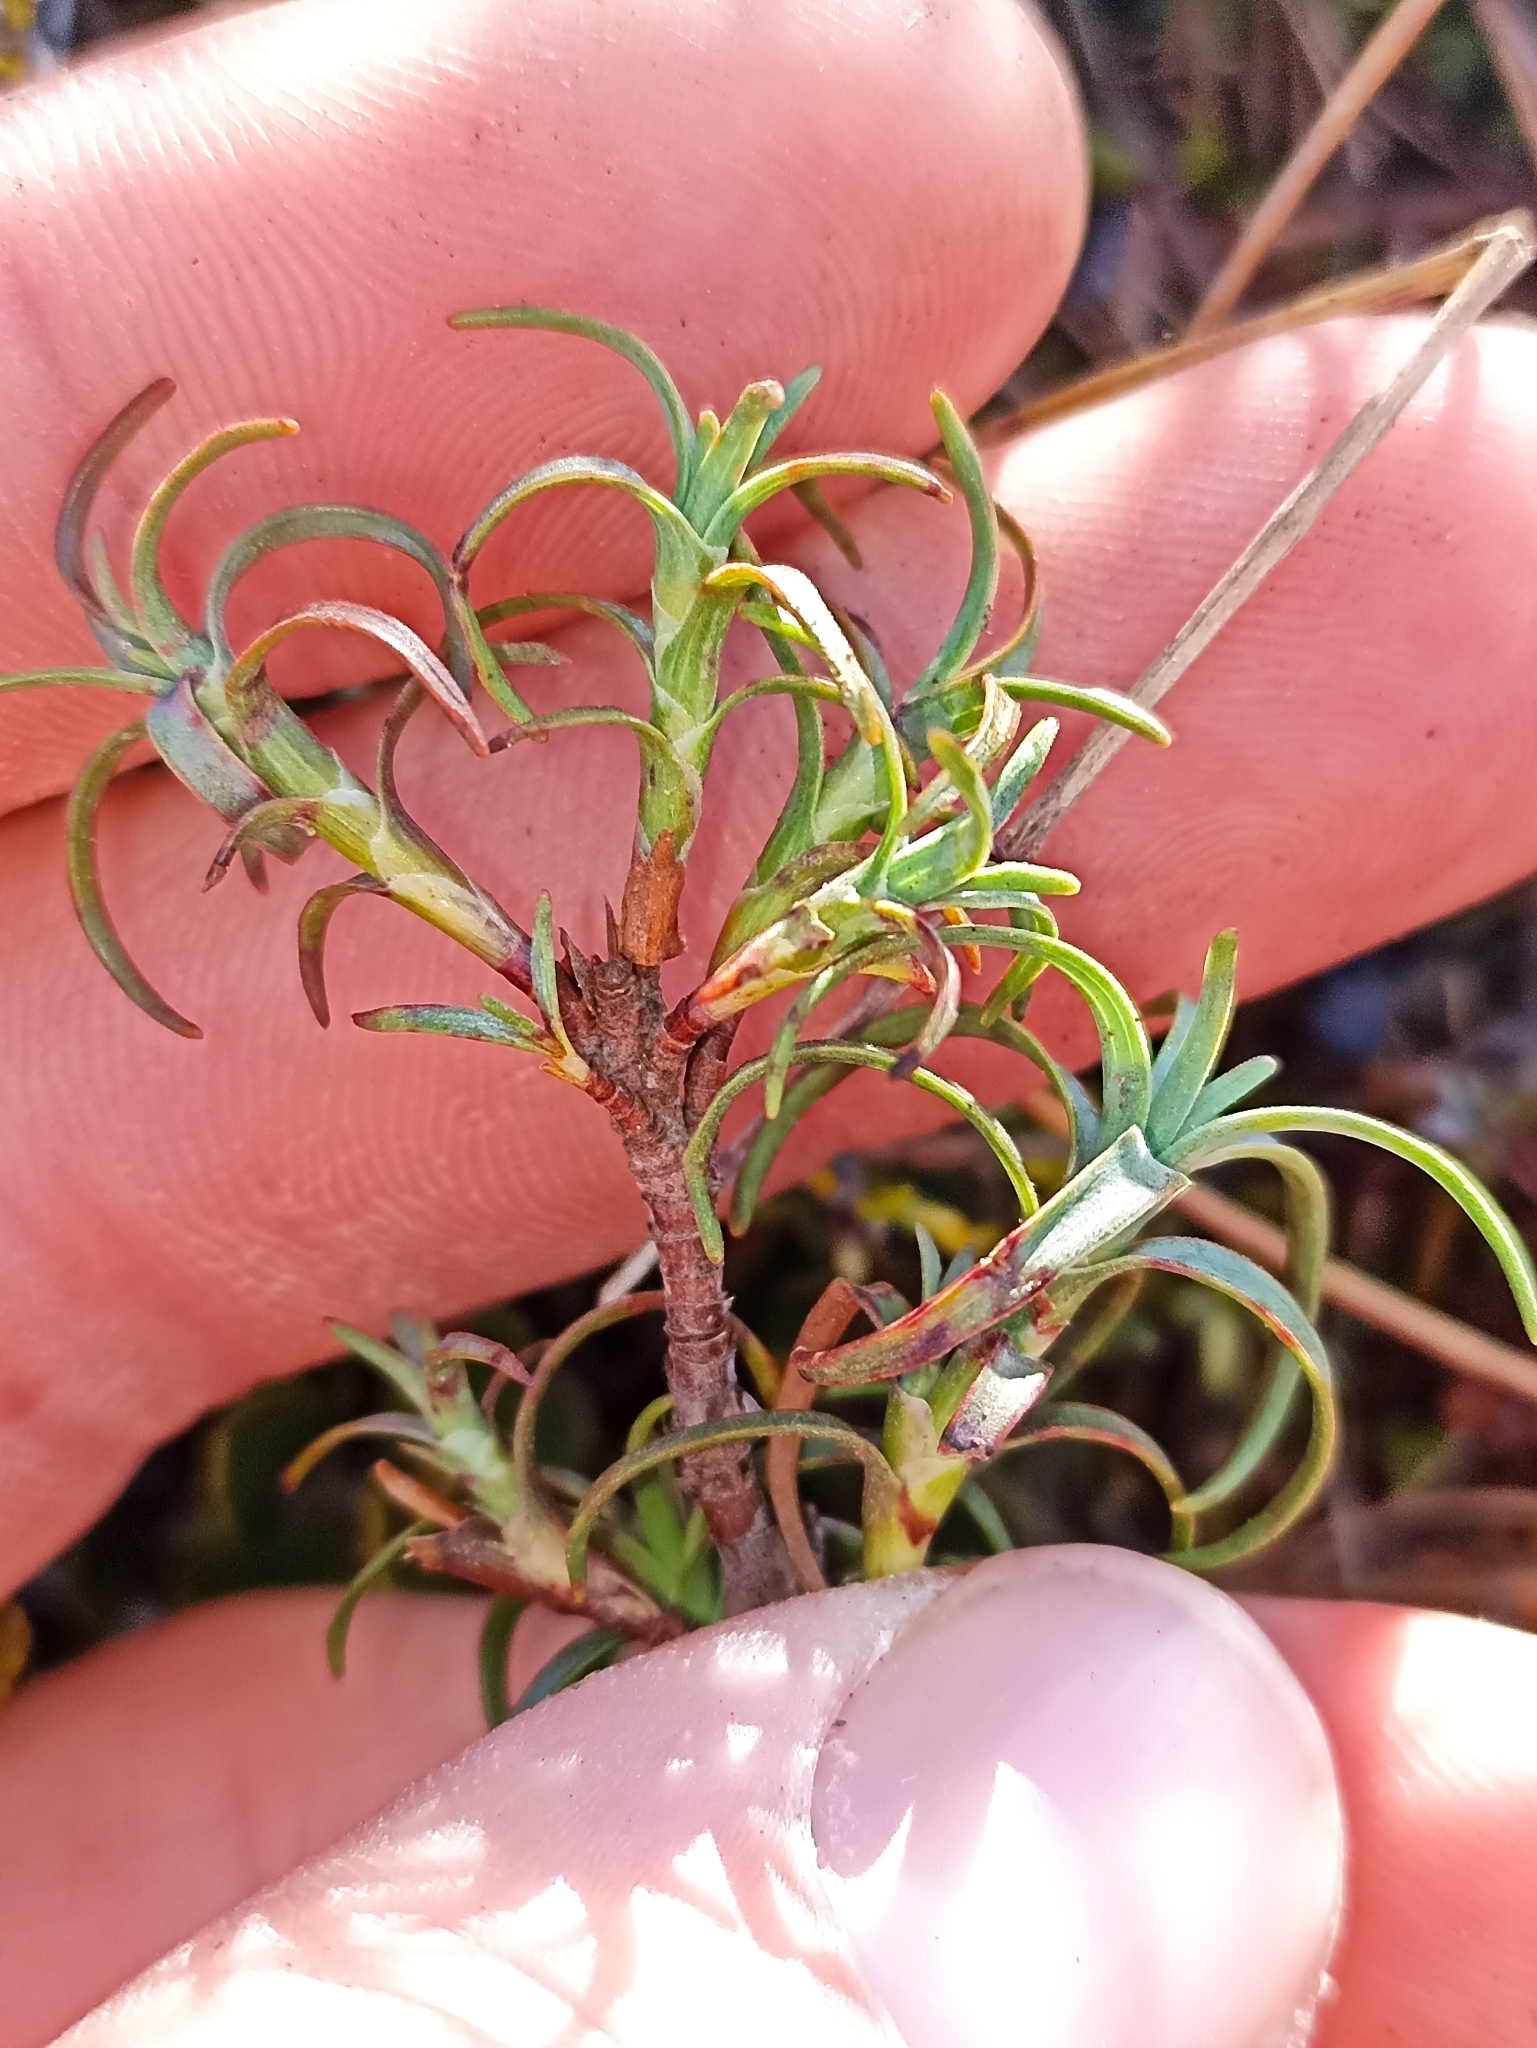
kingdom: Plantae
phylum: Tracheophyta
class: Magnoliopsida
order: Ericales
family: Ericaceae
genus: Dracophyllum
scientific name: Dracophyllum recurvum
